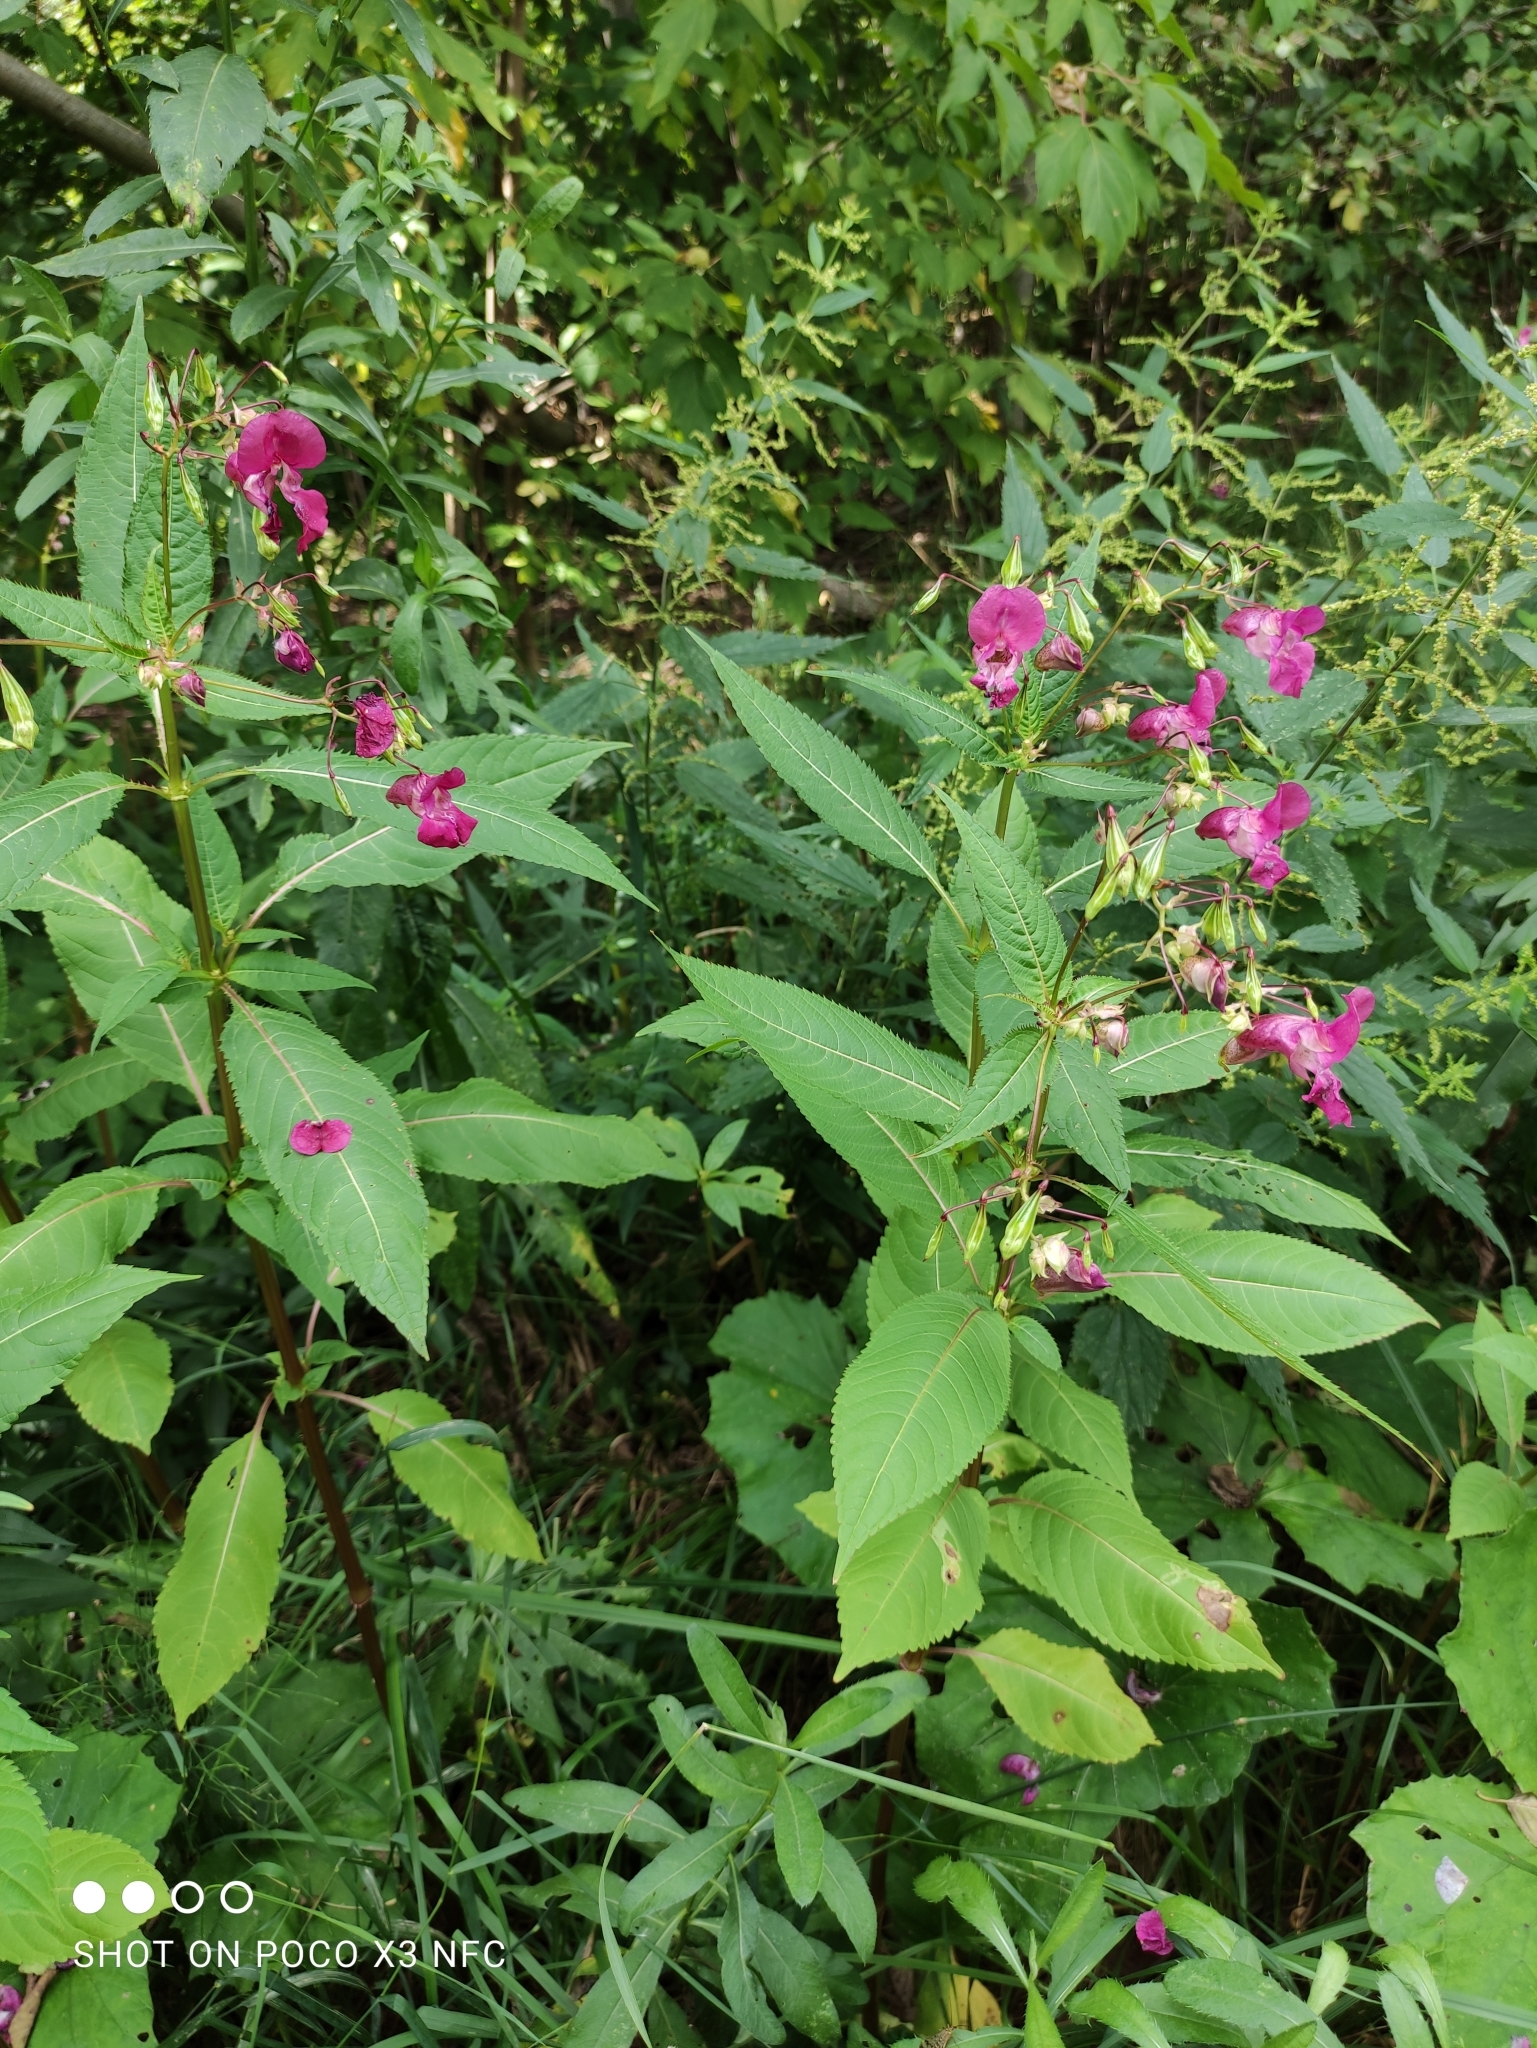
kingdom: Plantae
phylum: Tracheophyta
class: Magnoliopsida
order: Ericales
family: Balsaminaceae
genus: Impatiens
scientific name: Impatiens glandulifera
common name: Himalayan balsam
